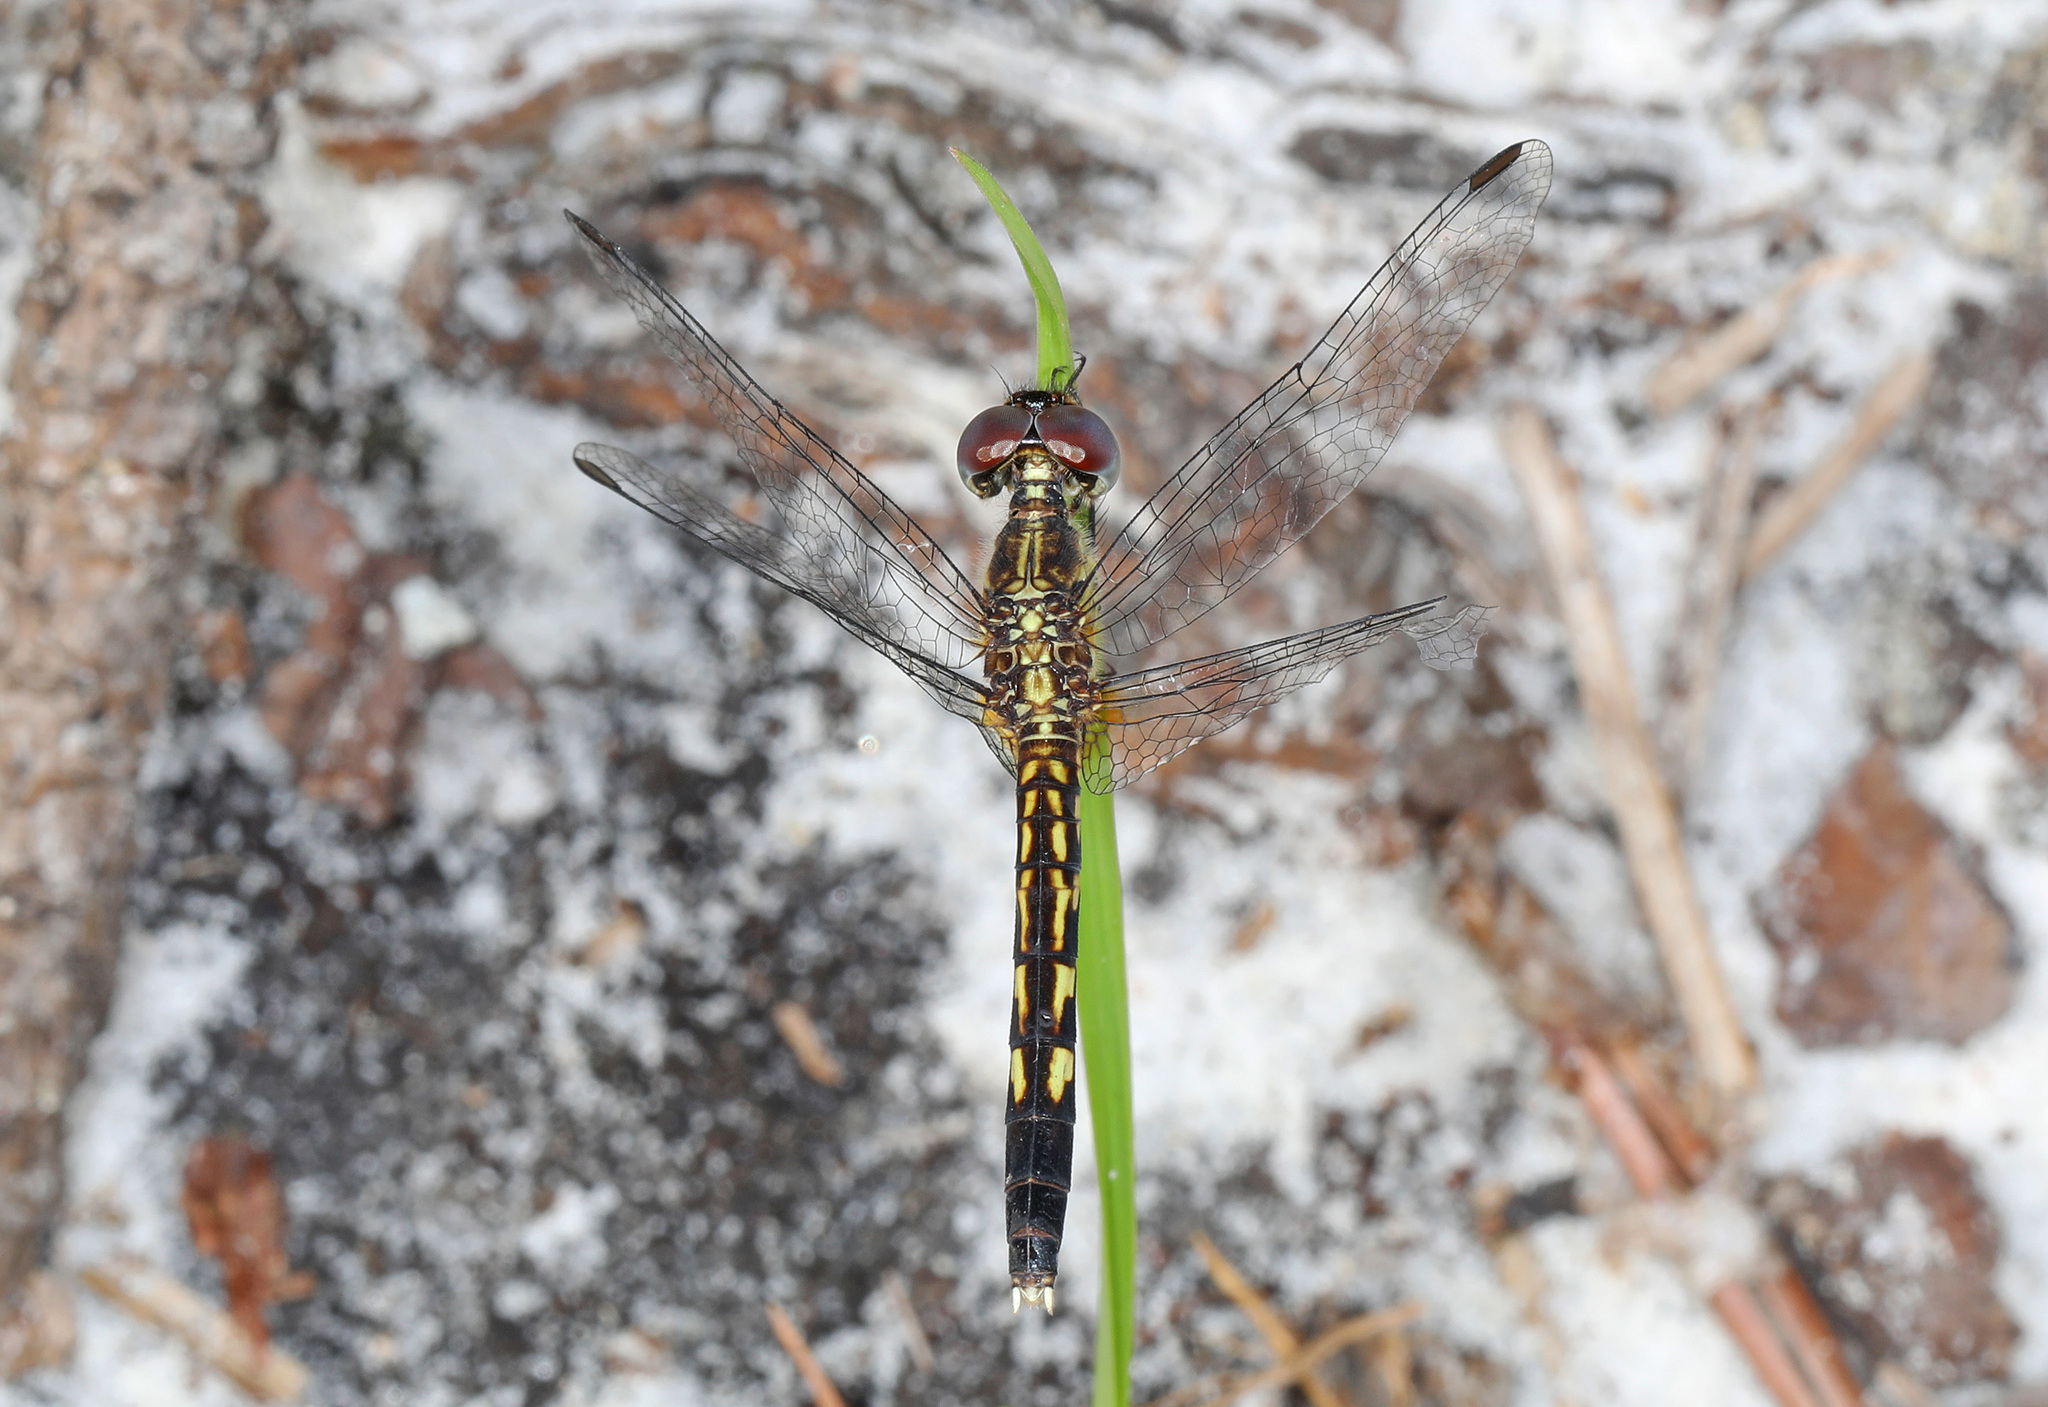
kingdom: Animalia
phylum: Arthropoda
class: Insecta
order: Odonata
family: Libellulidae
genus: Erythrodiplax
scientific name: Erythrodiplax minuscula
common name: Little blue dragonlet
